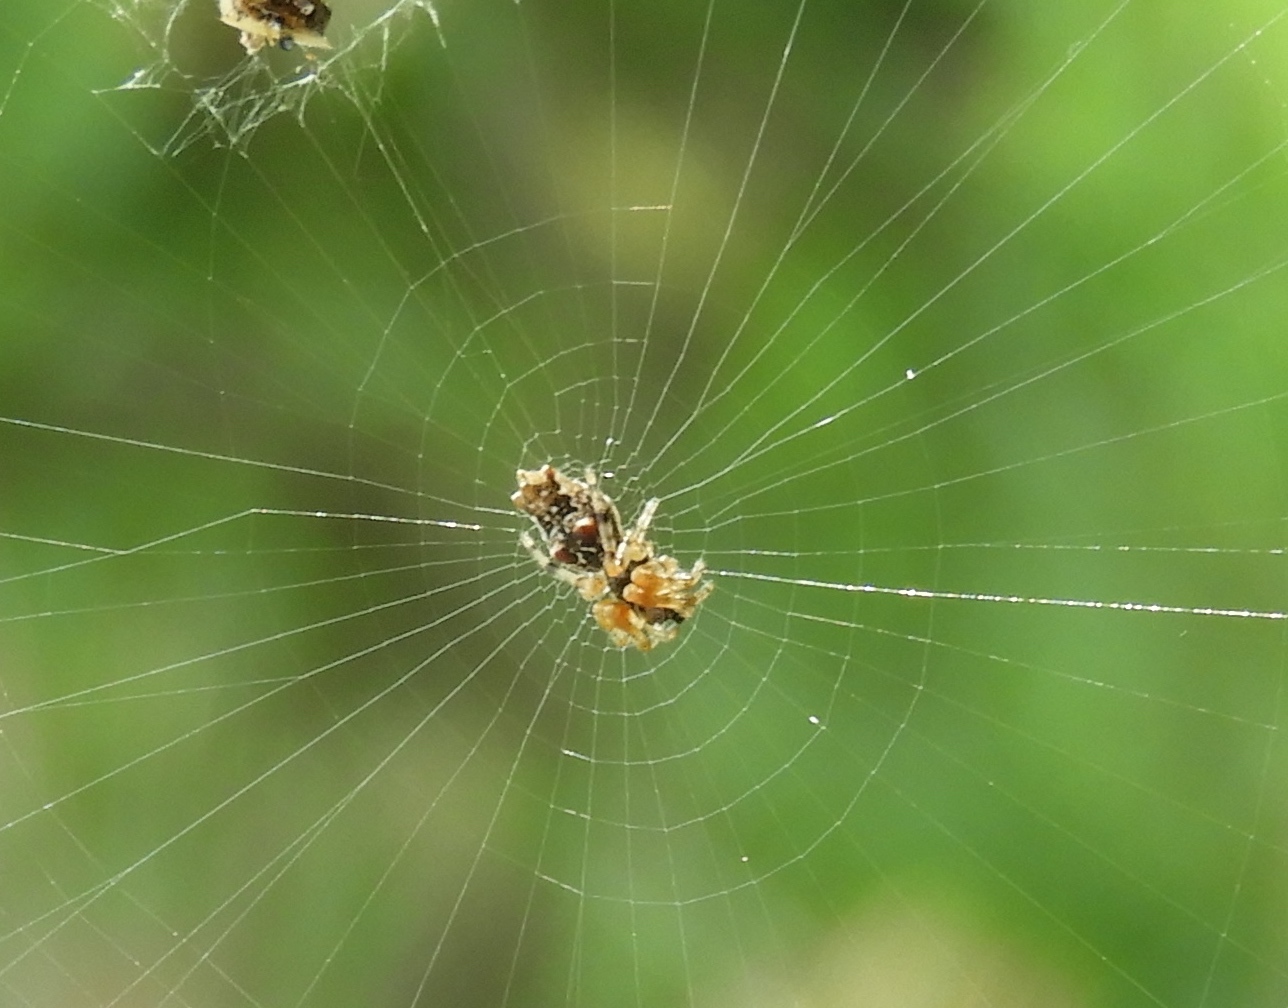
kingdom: Animalia
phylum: Arthropoda
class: Arachnida
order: Araneae
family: Araneidae
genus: Cyclosa
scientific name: Cyclosa walckenaeri
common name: Orb weavers
